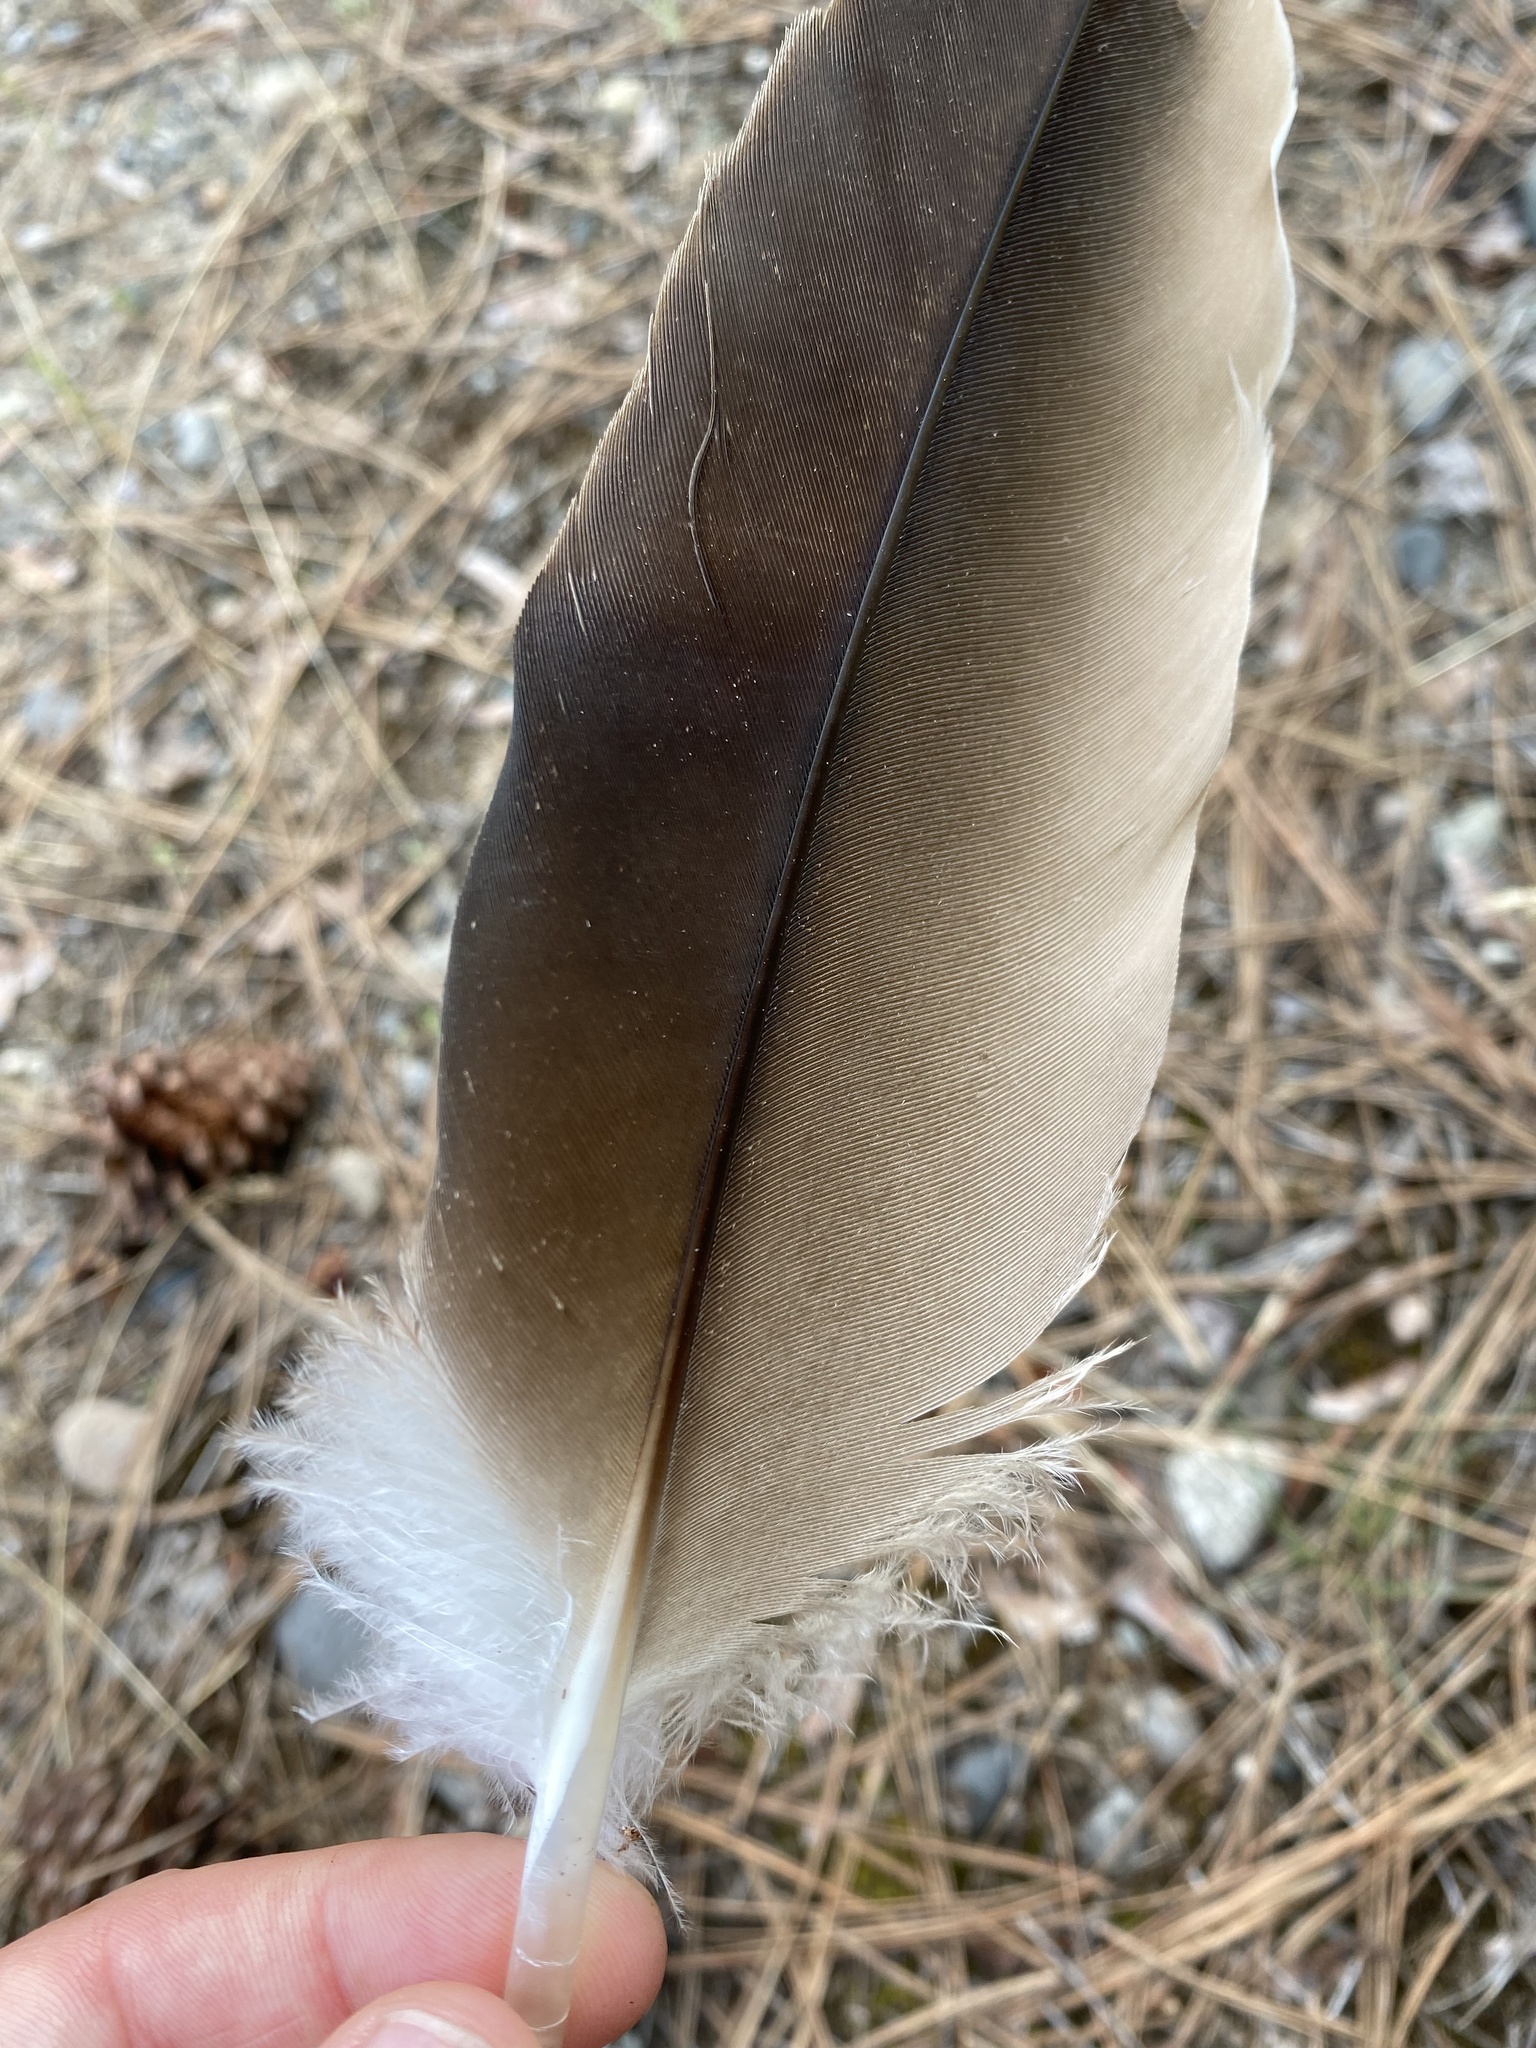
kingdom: Animalia
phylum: Chordata
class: Aves
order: Accipitriformes
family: Cathartidae
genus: Cathartes
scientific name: Cathartes aura
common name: Turkey vulture
